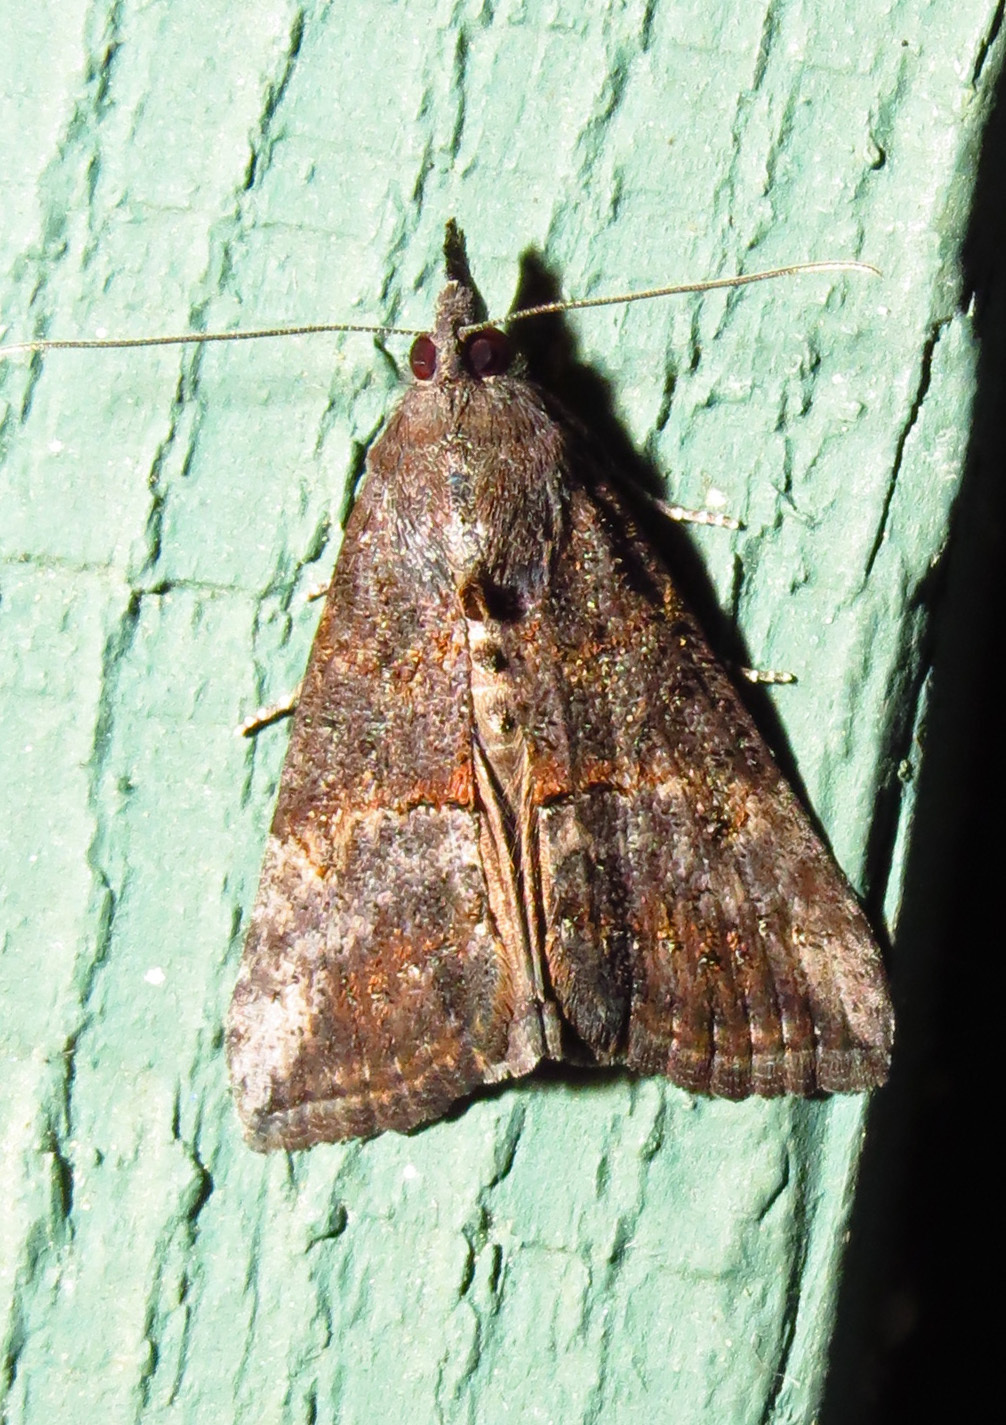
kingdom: Animalia
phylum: Arthropoda
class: Insecta
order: Lepidoptera
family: Erebidae
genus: Hypena
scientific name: Hypena scabra
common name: Green cloverworm
